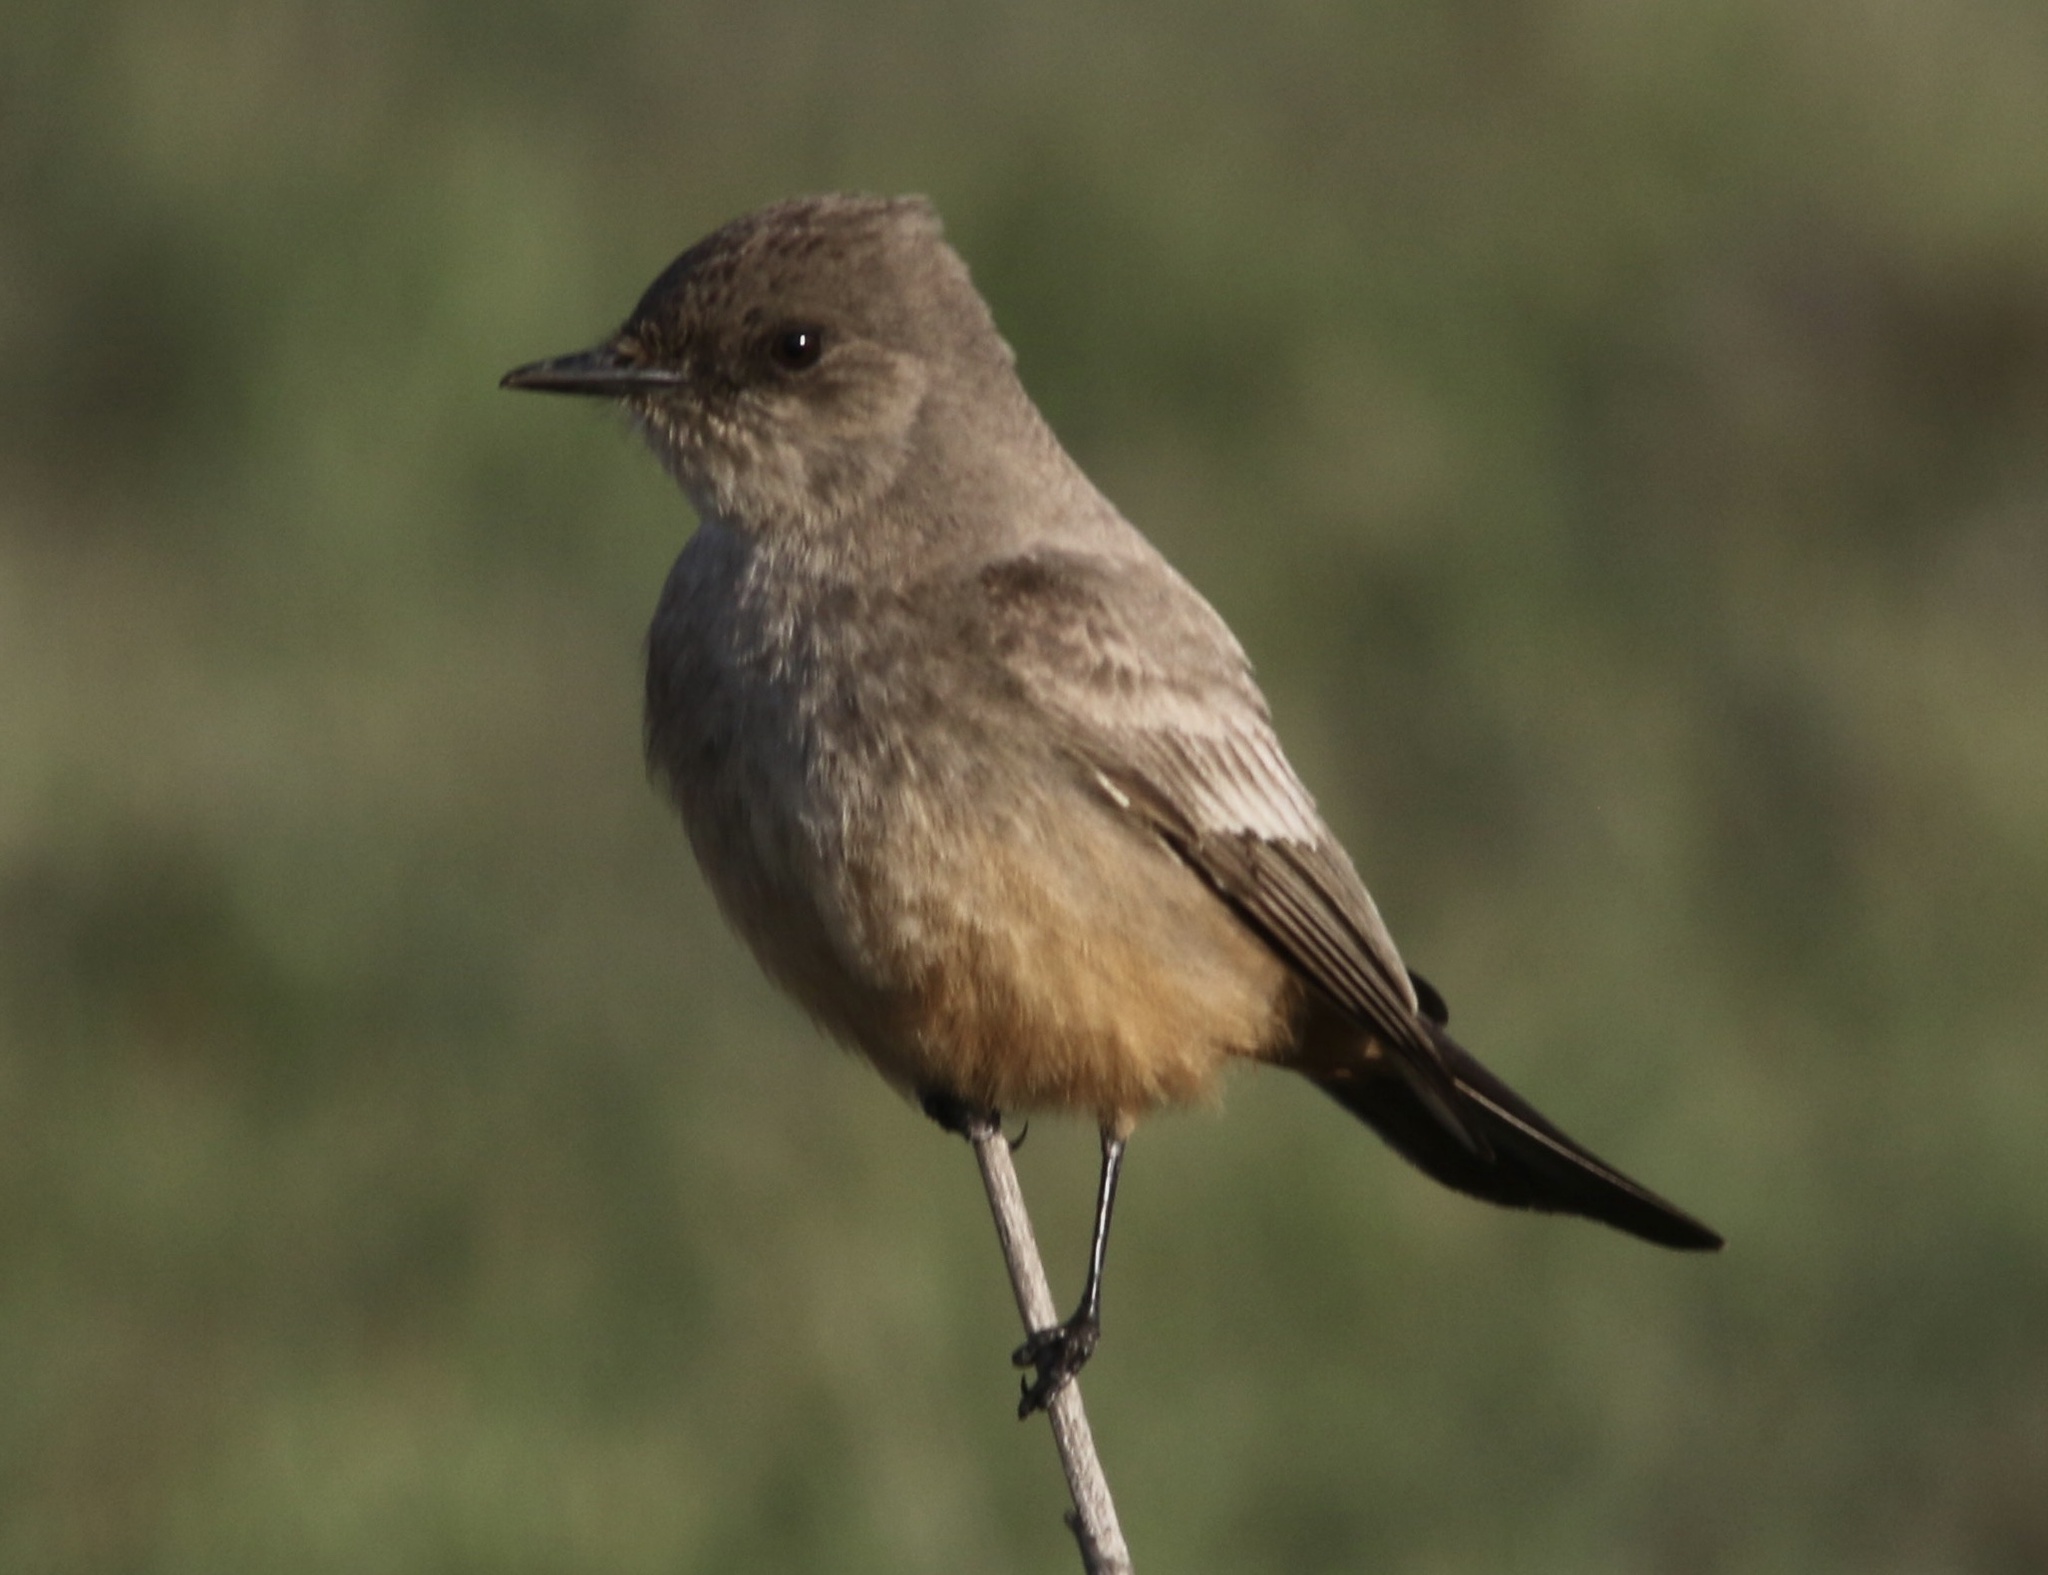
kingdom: Animalia
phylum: Chordata
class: Aves
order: Passeriformes
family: Tyrannidae
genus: Sayornis
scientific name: Sayornis saya
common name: Say's phoebe
